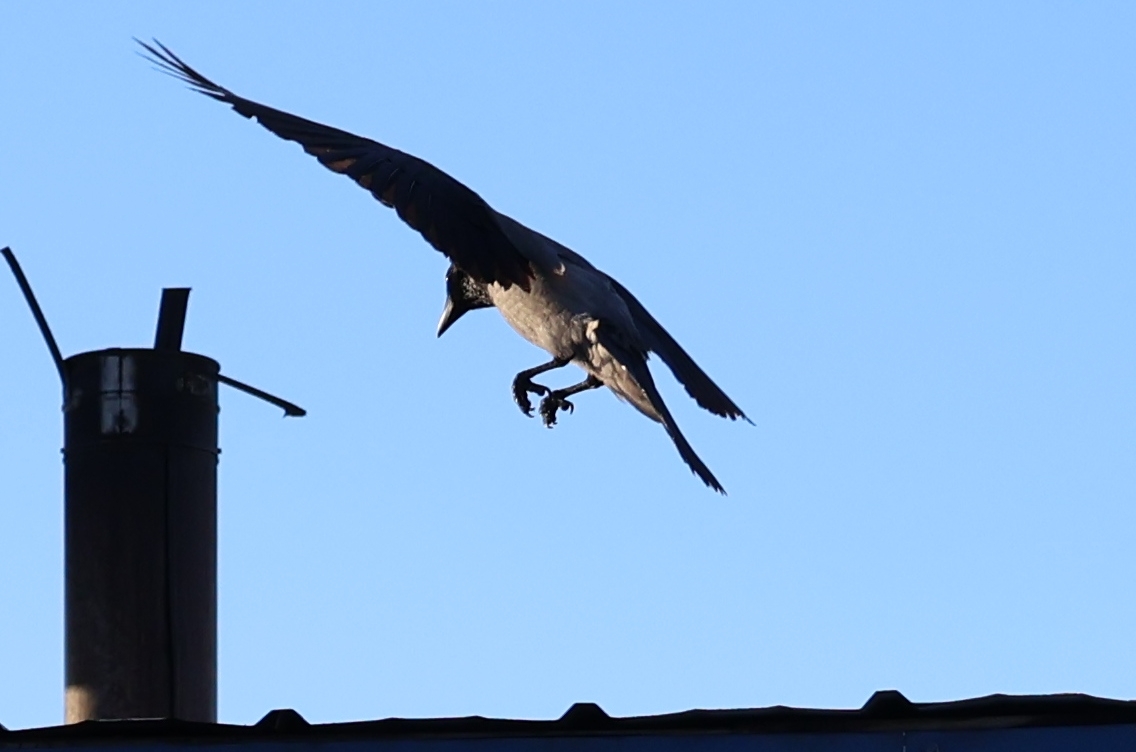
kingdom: Animalia
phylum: Chordata
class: Aves
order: Passeriformes
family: Corvidae
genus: Corvus
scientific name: Corvus cornix
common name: Hooded crow
